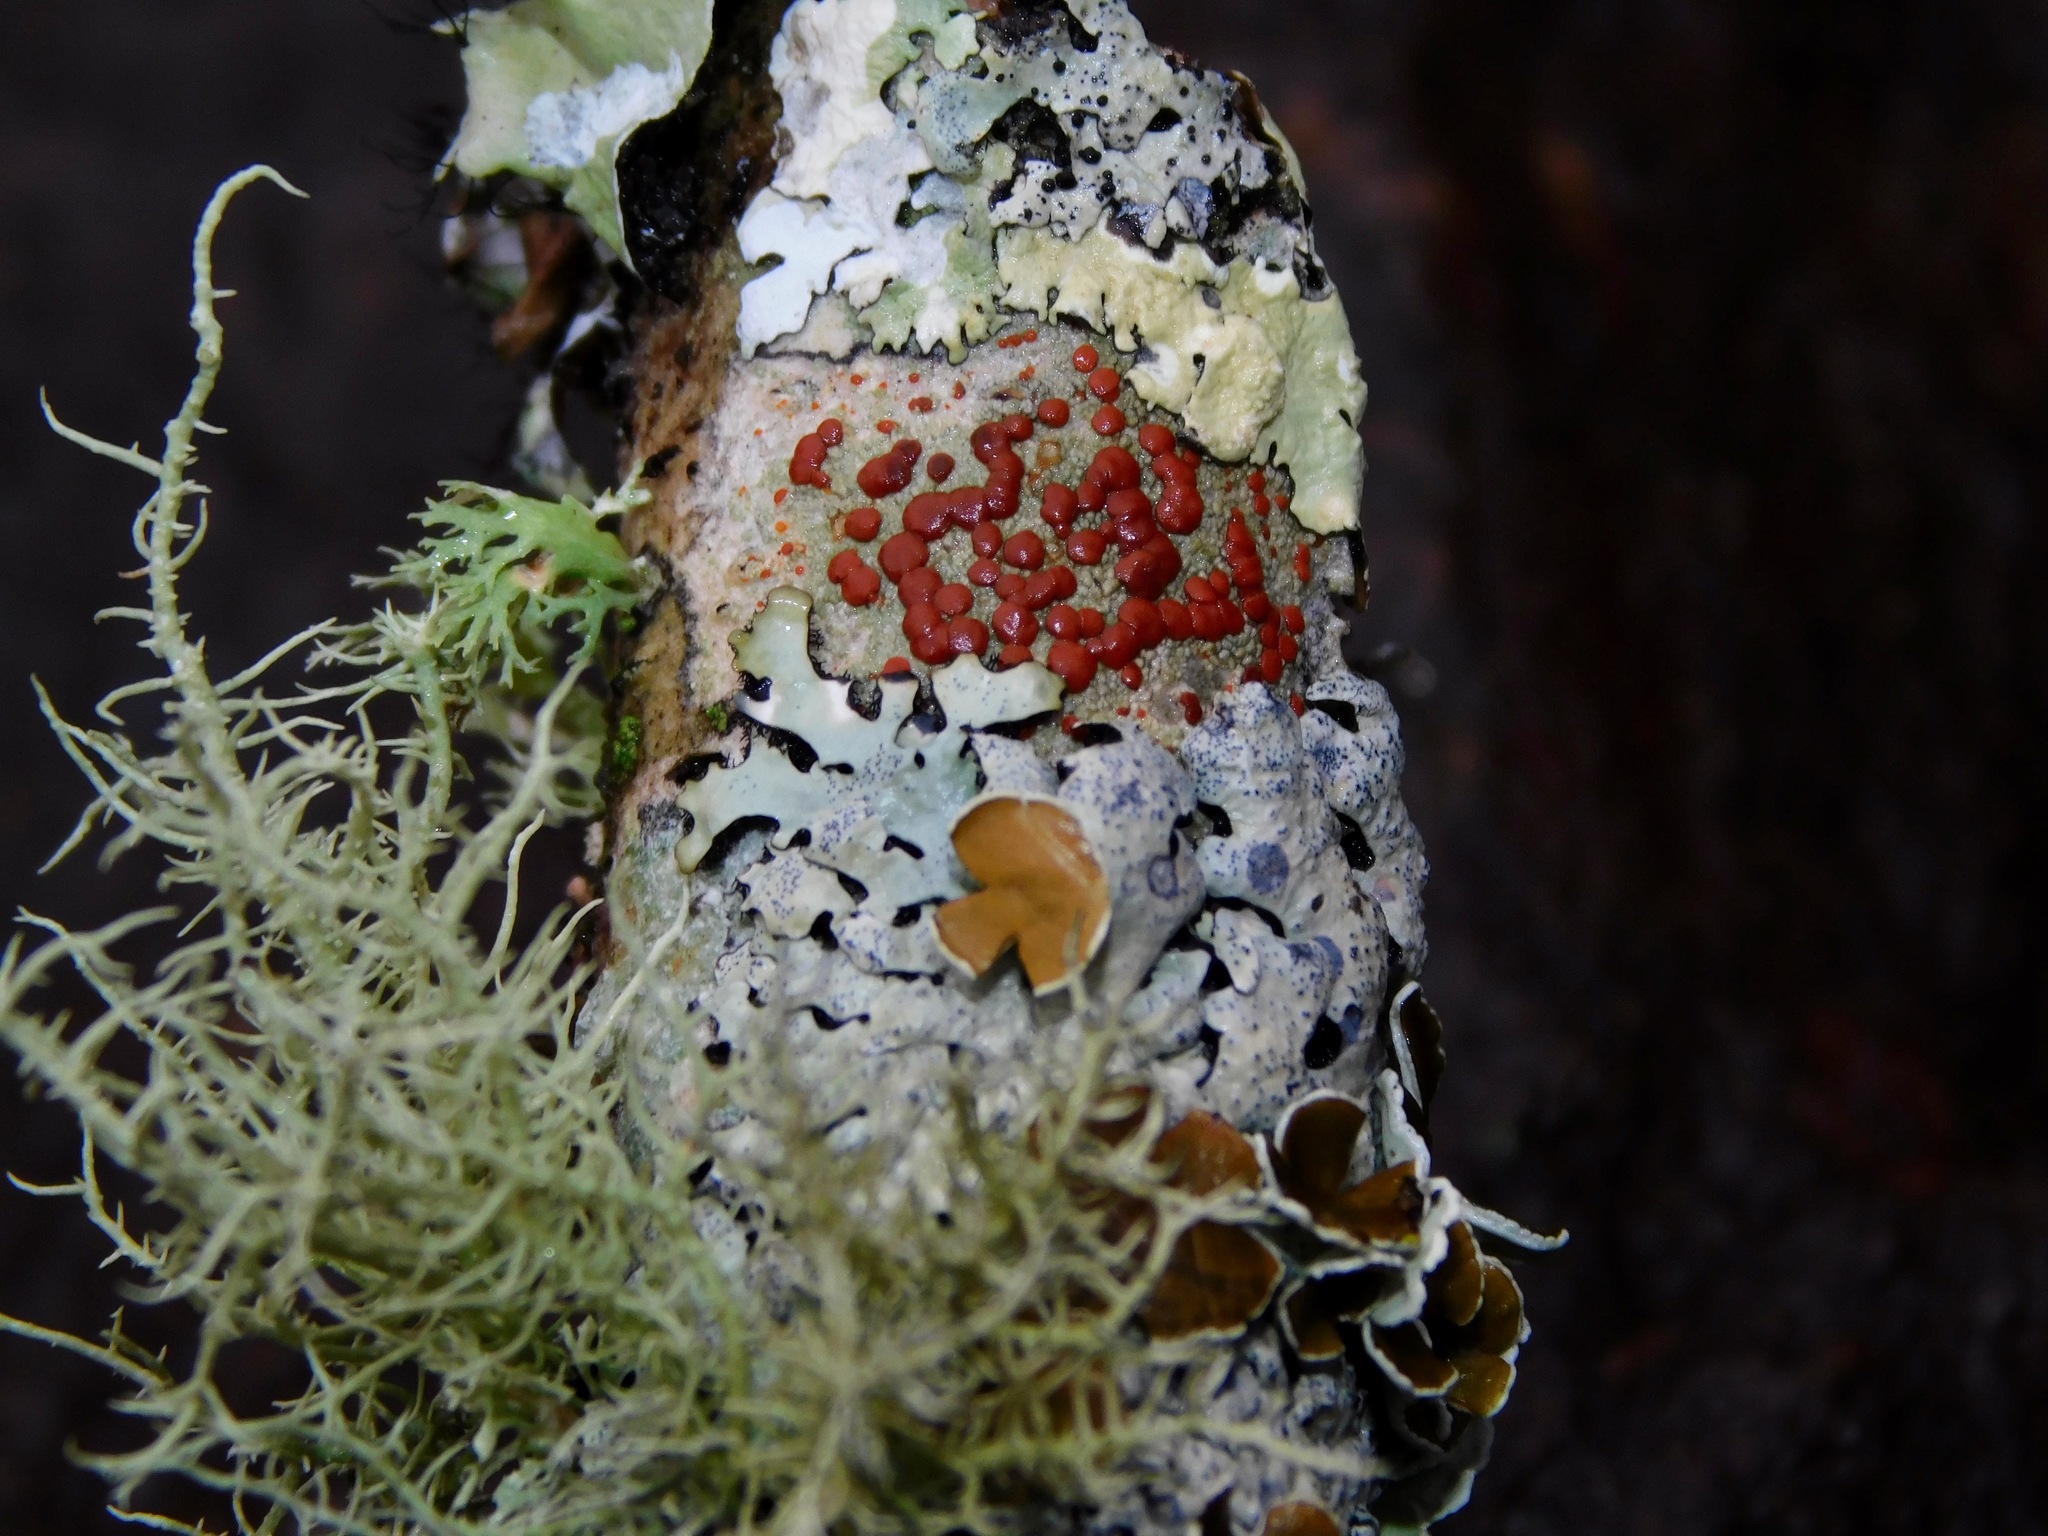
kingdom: Fungi
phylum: Ascomycota
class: Lecanoromycetes
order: Lecanorales
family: Ramboldiaceae
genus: Ramboldia
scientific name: Ramboldia russula
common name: Red heads
